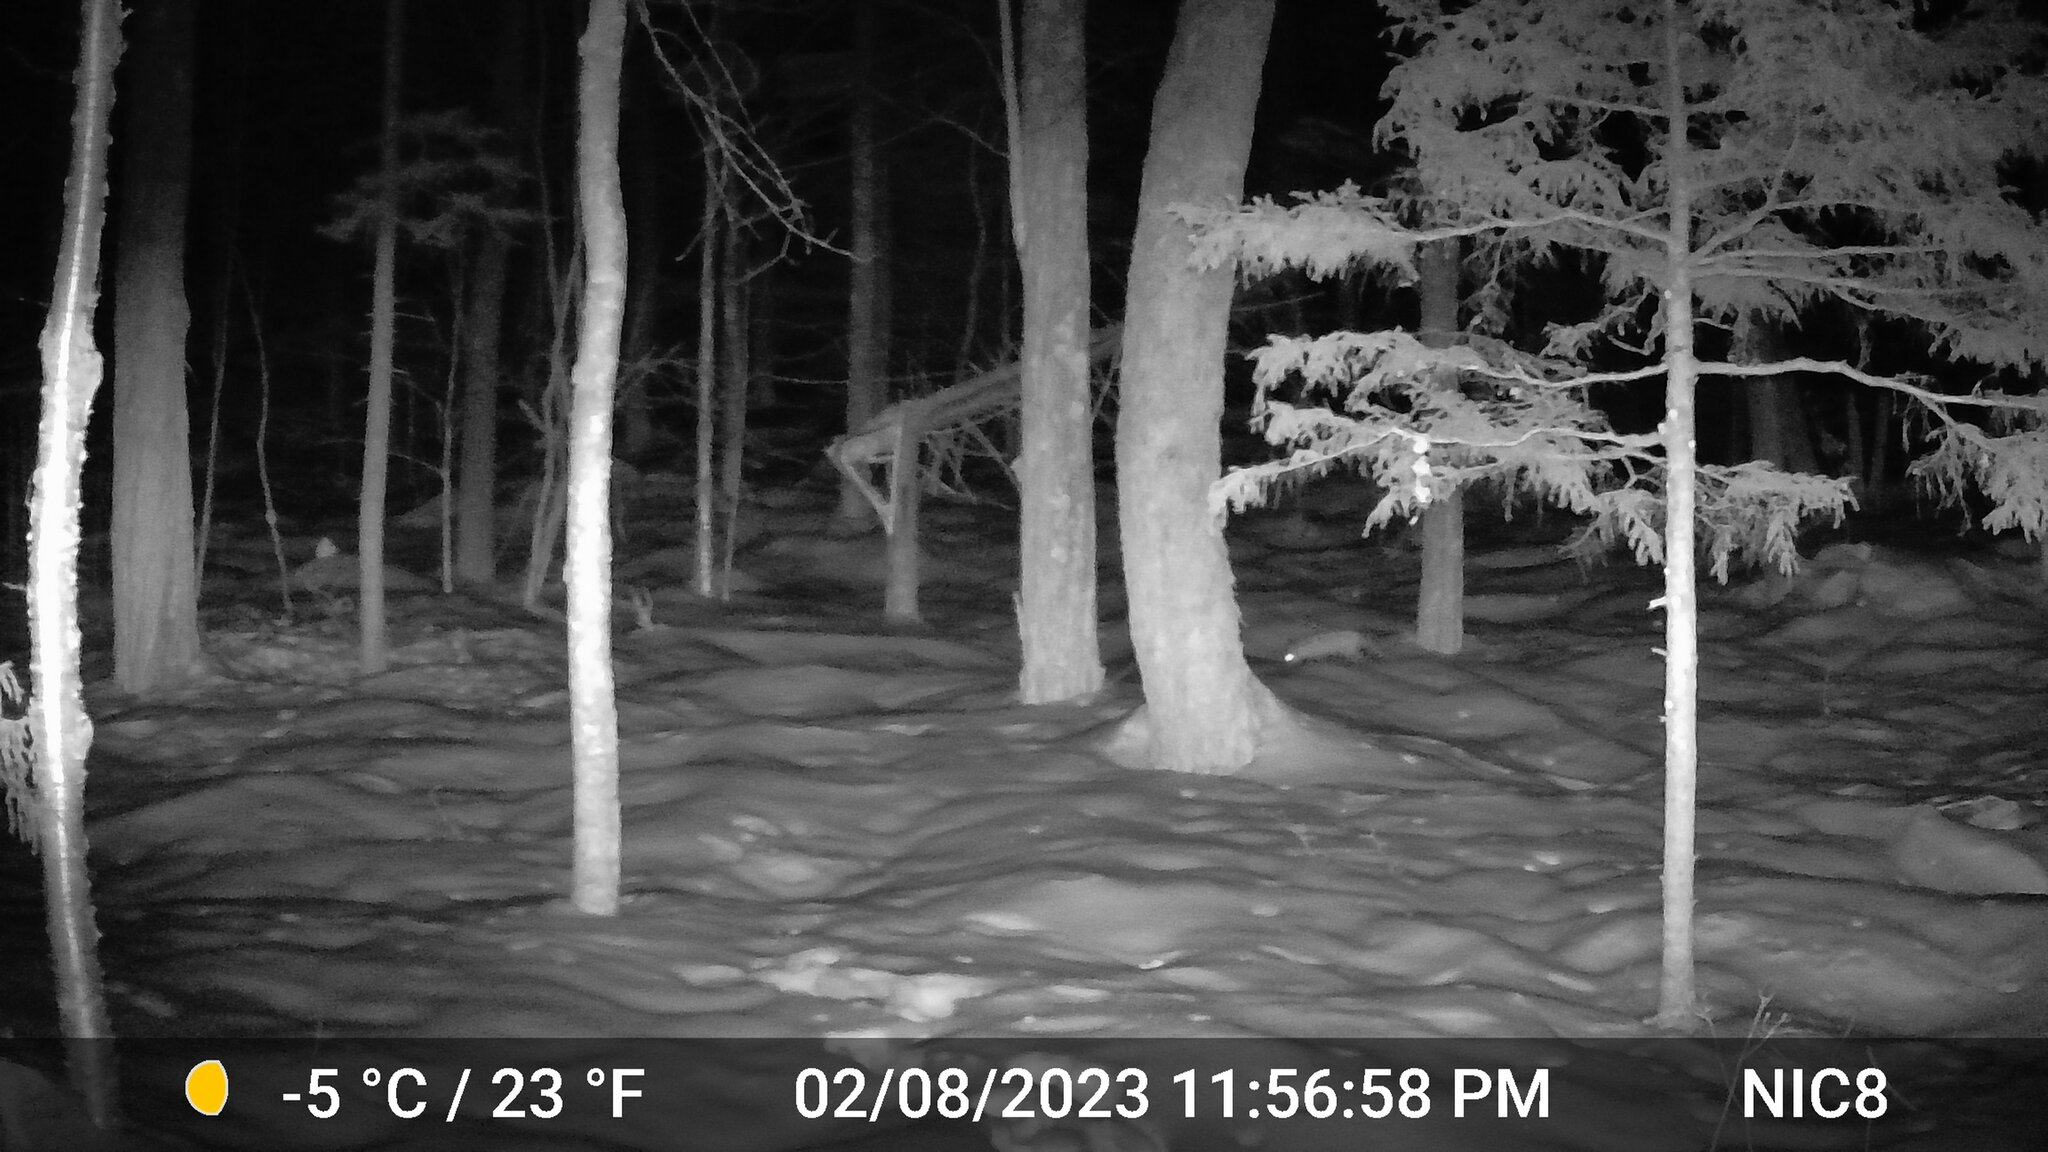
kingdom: Animalia
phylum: Chordata
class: Mammalia
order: Carnivora
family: Canidae
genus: Vulpes
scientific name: Vulpes vulpes
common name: Red fox
